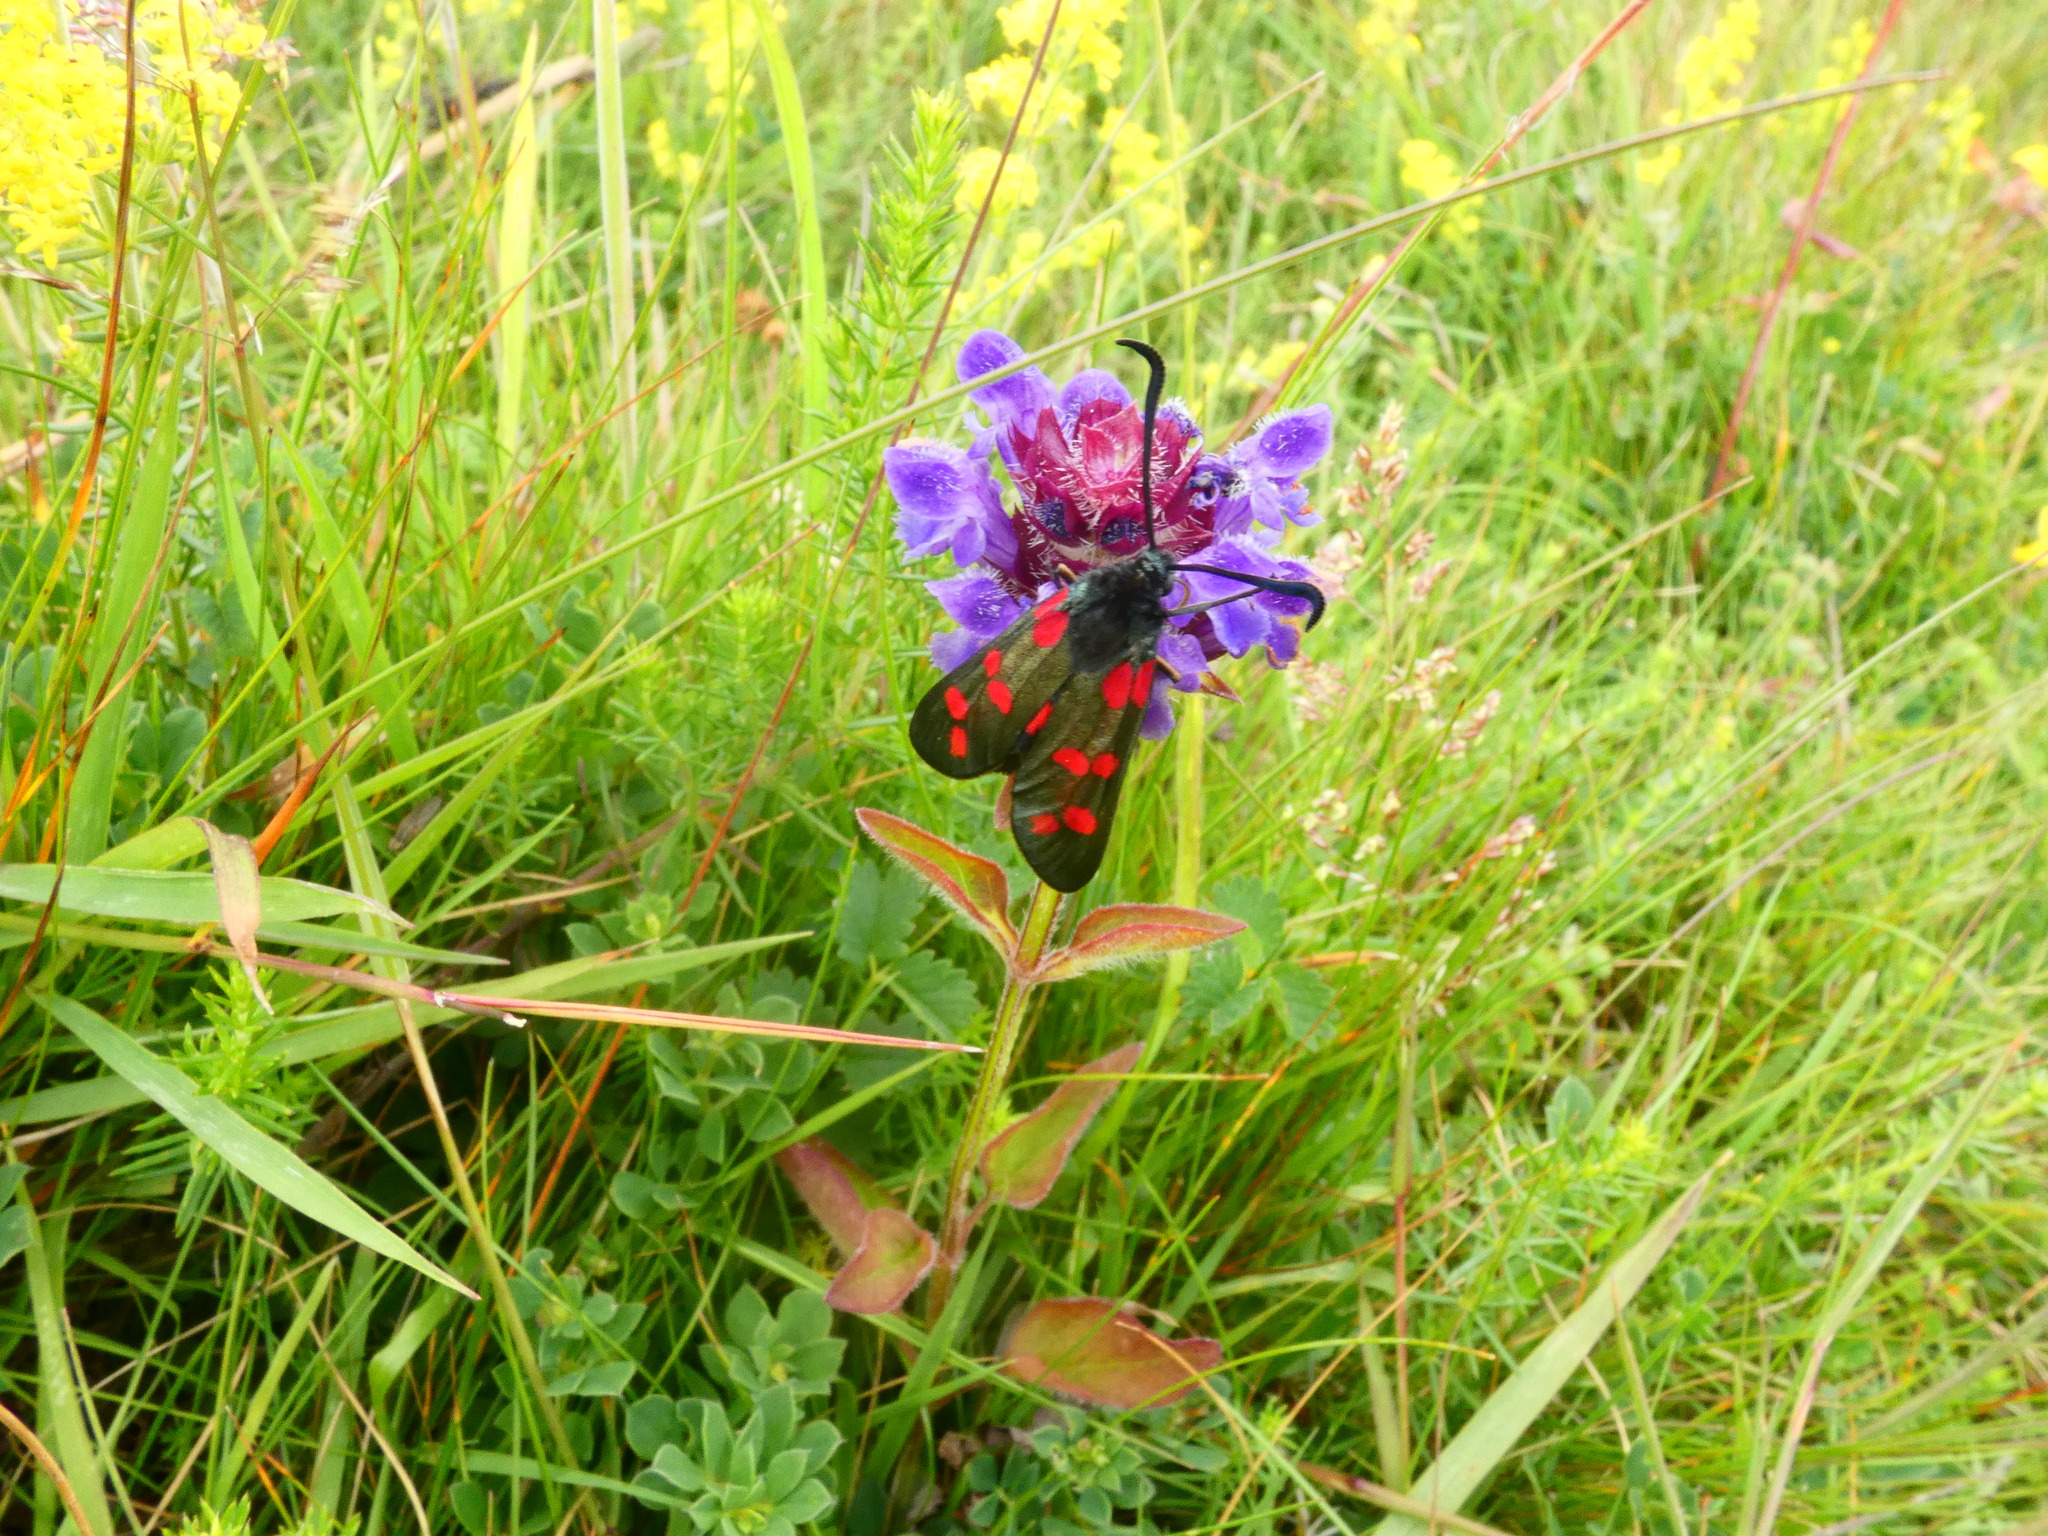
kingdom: Animalia
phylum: Arthropoda
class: Insecta
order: Lepidoptera
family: Zygaenidae
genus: Zygaena
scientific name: Zygaena filipendulae
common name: Six-spot burnet
